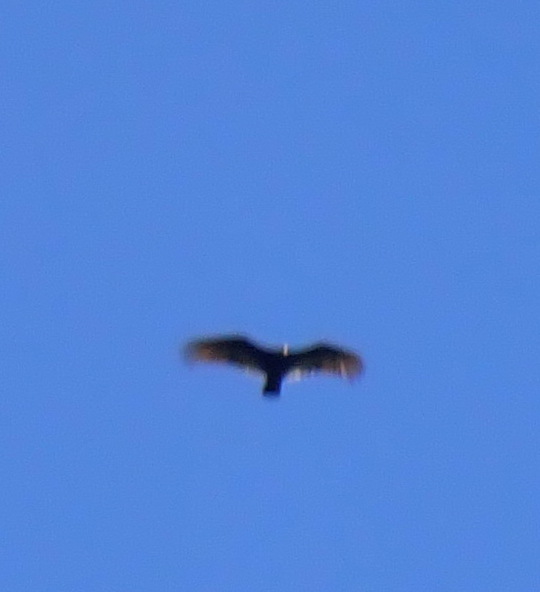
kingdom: Animalia
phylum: Chordata
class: Aves
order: Accipitriformes
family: Cathartidae
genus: Cathartes
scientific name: Cathartes aura
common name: Turkey vulture
